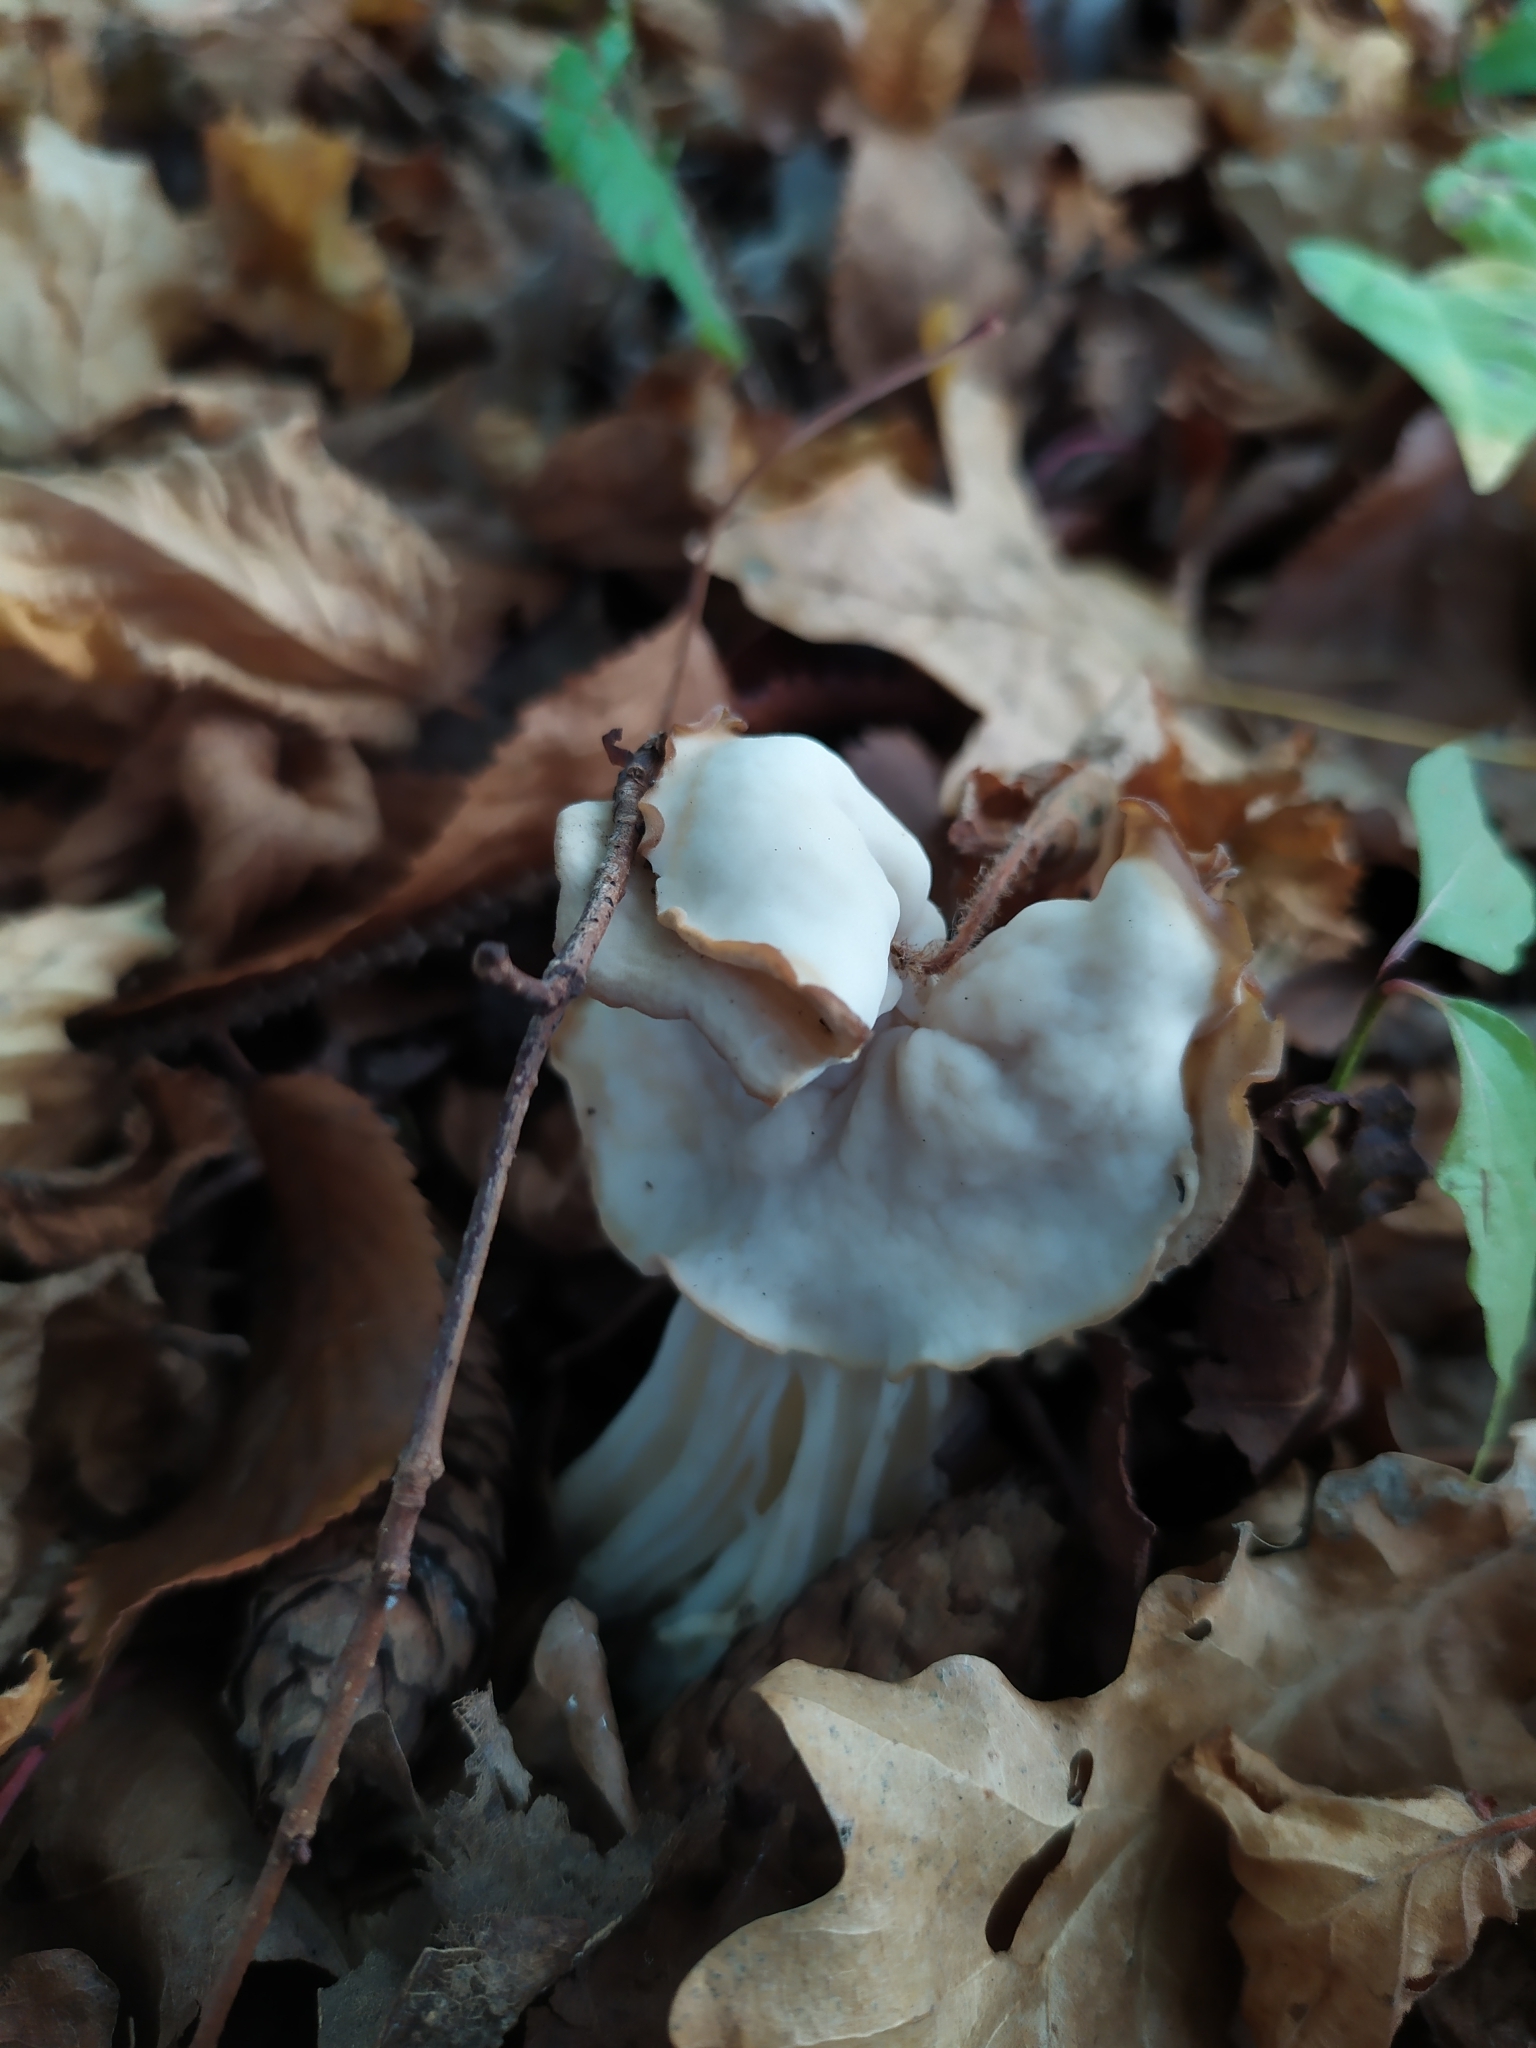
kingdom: Fungi
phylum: Ascomycota
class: Pezizomycetes
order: Pezizales
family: Helvellaceae
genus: Helvella
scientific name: Helvella crispa
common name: White saddle
